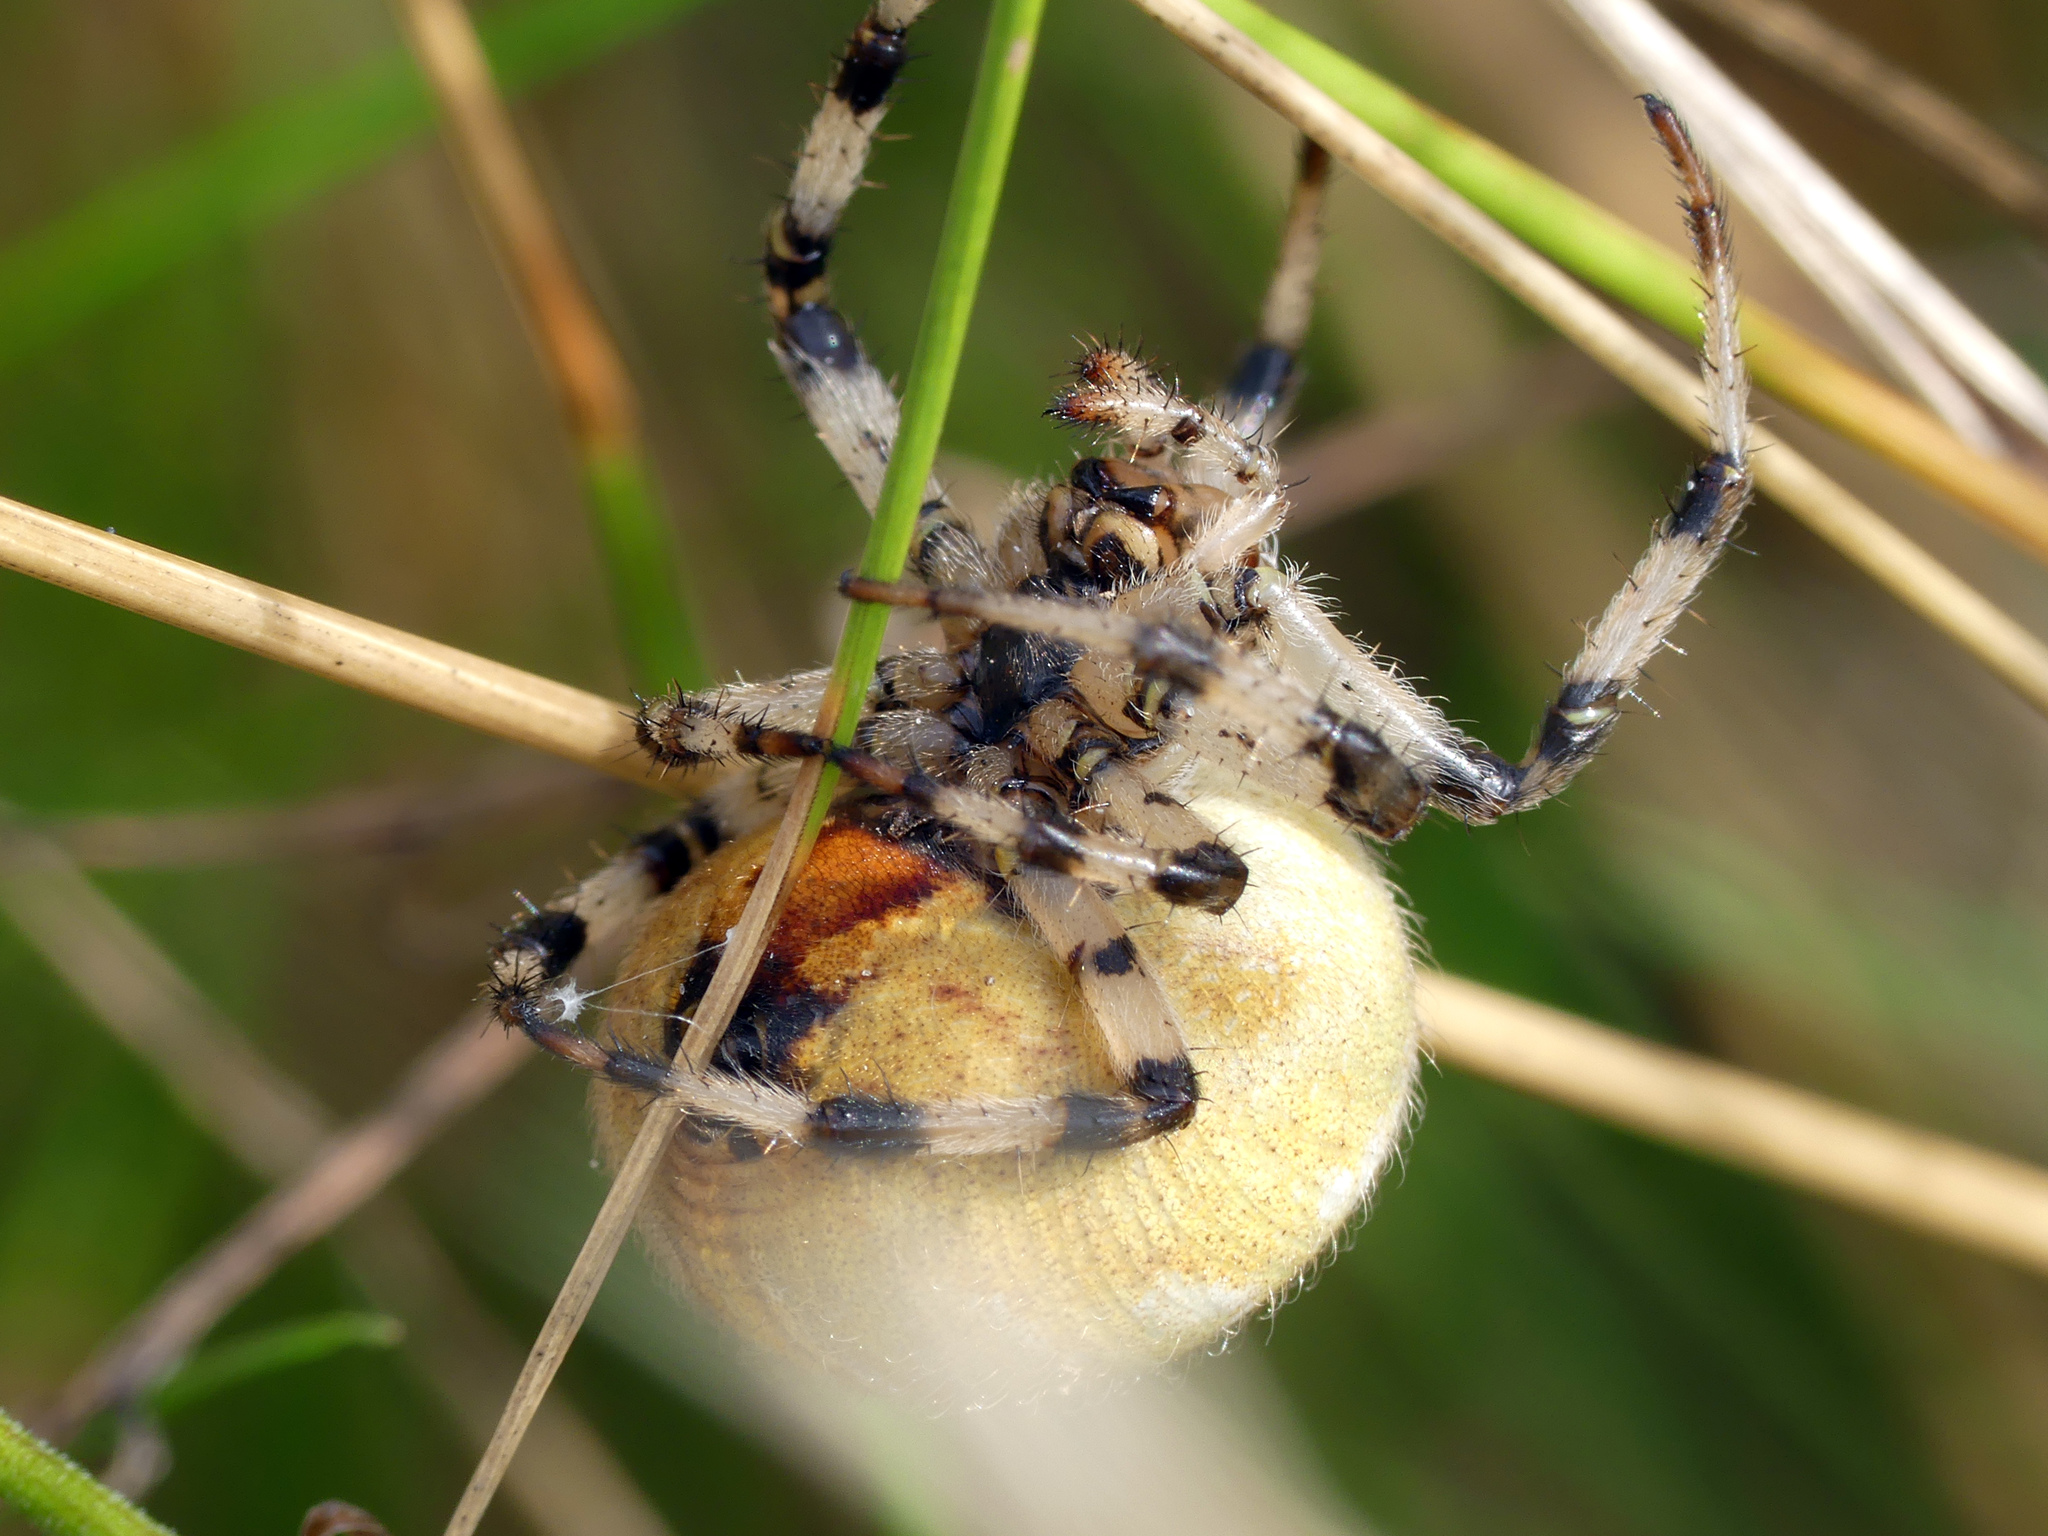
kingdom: Animalia
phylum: Arthropoda
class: Arachnida
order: Araneae
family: Araneidae
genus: Araneus
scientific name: Araneus quadratus
